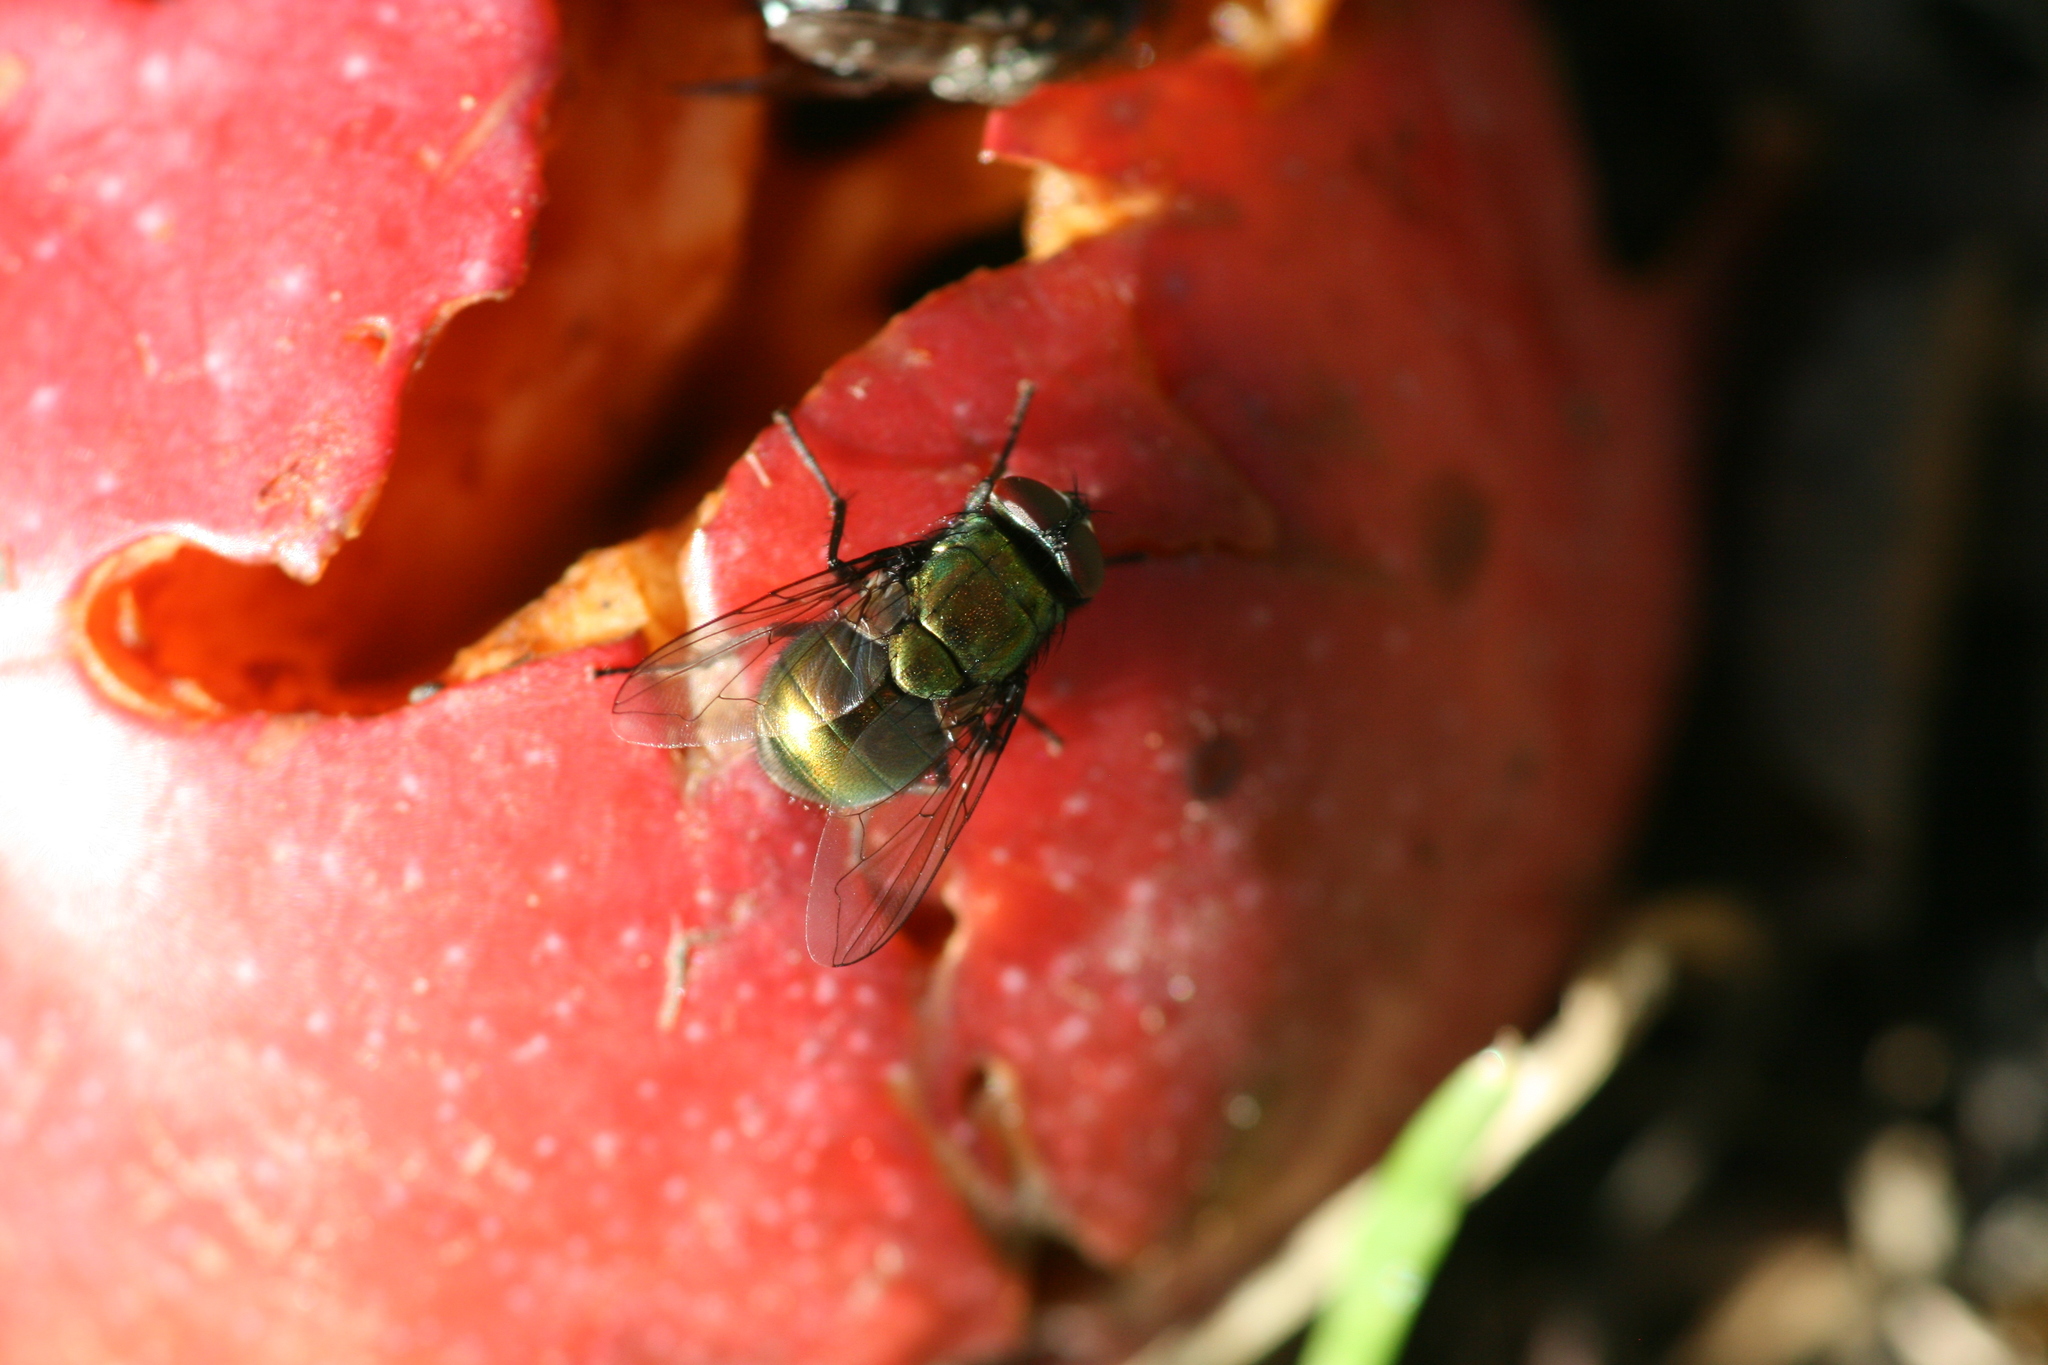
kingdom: Animalia
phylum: Arthropoda
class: Insecta
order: Diptera
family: Muscidae
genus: Neomyia
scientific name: Neomyia viridescens
